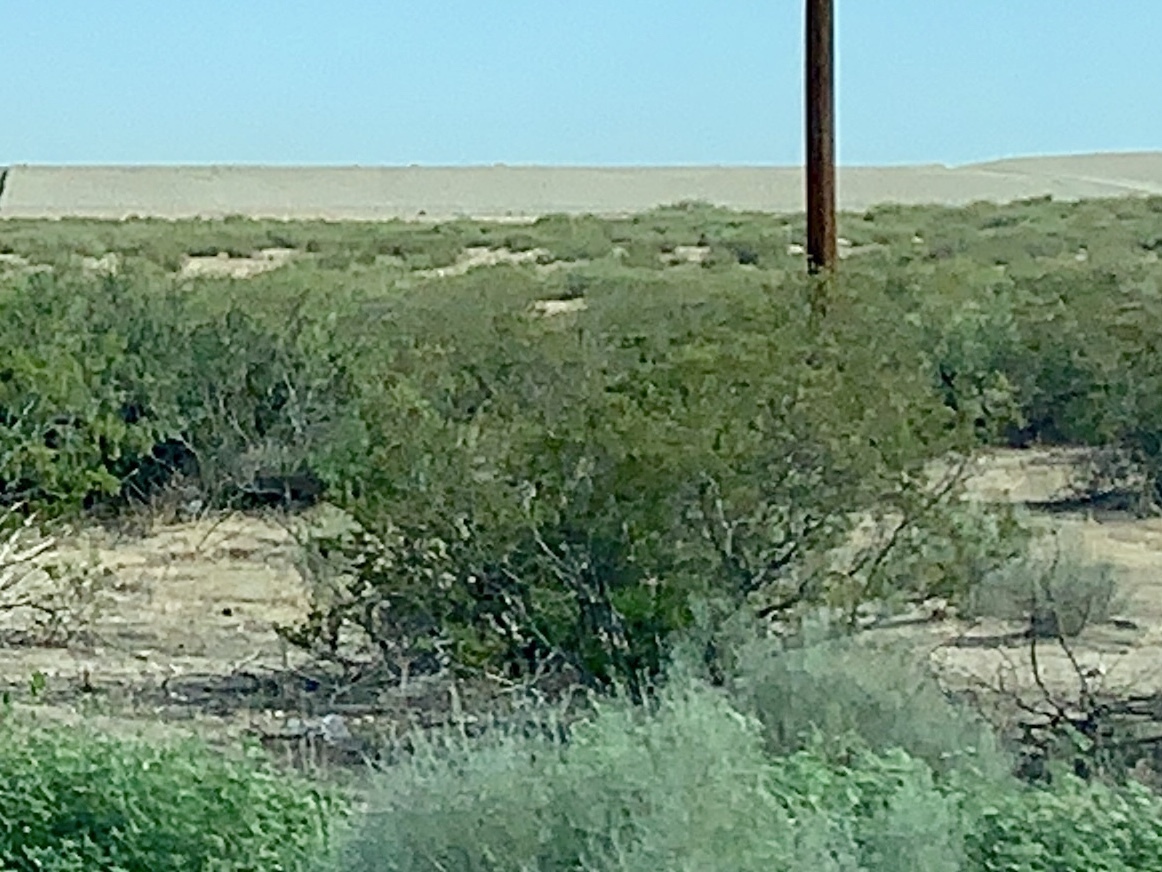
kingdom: Plantae
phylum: Tracheophyta
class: Magnoliopsida
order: Zygophyllales
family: Zygophyllaceae
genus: Larrea
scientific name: Larrea tridentata
